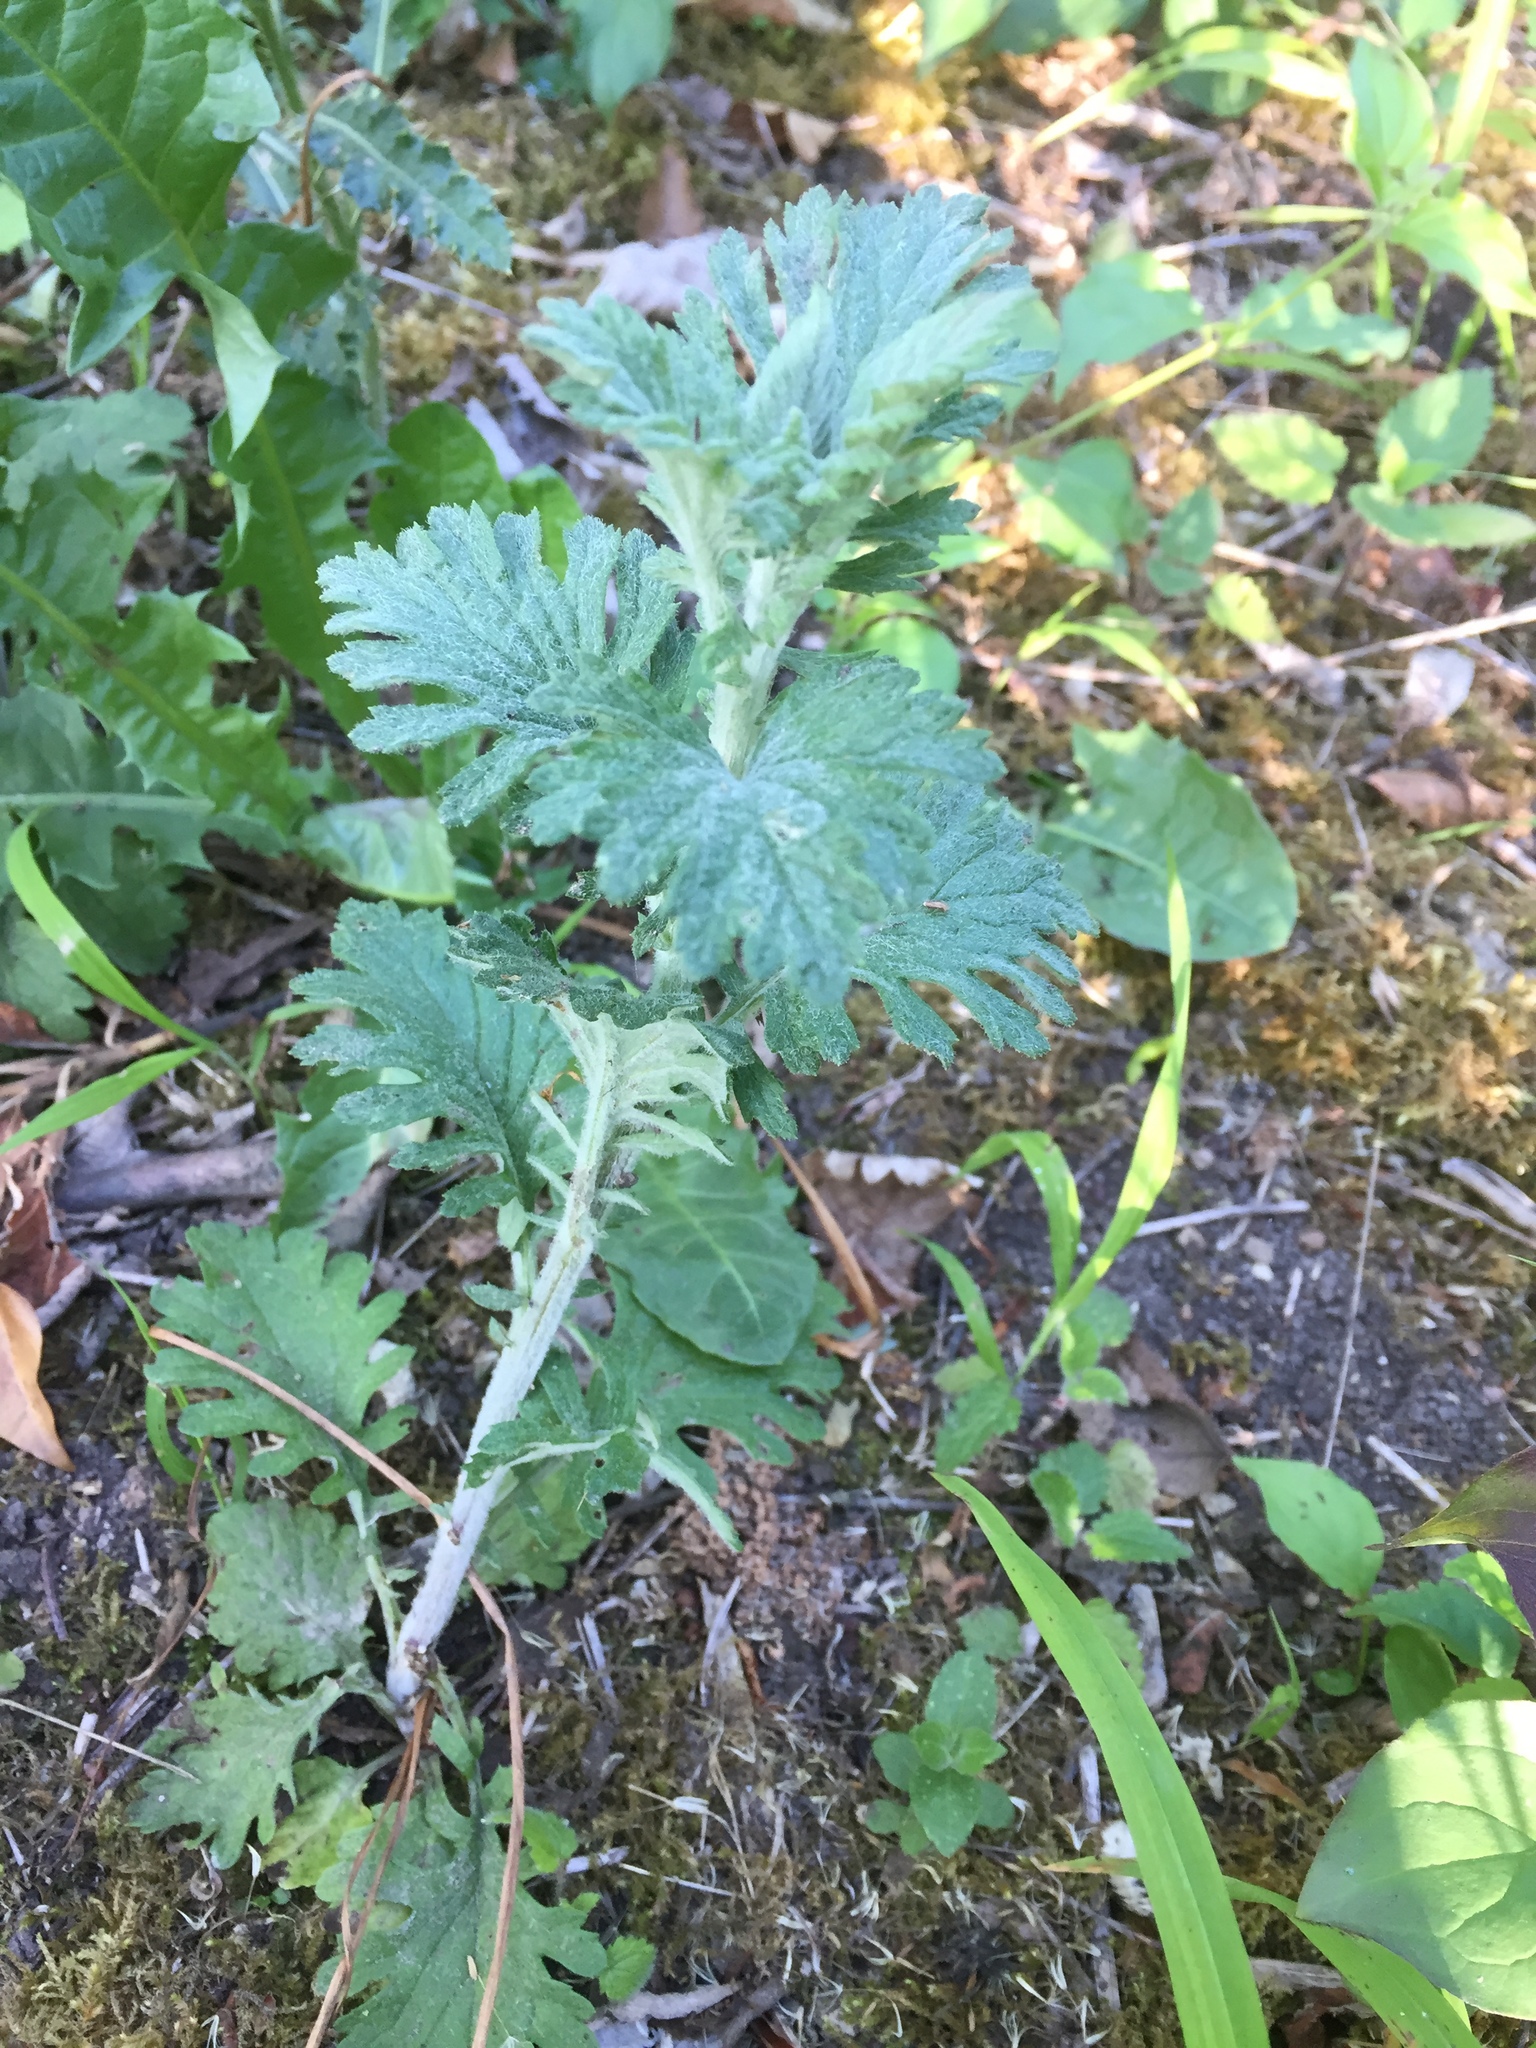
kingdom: Plantae
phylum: Tracheophyta
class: Magnoliopsida
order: Asterales
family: Asteraceae
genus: Cota
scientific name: Cota tinctoria
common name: Golden chamomile
